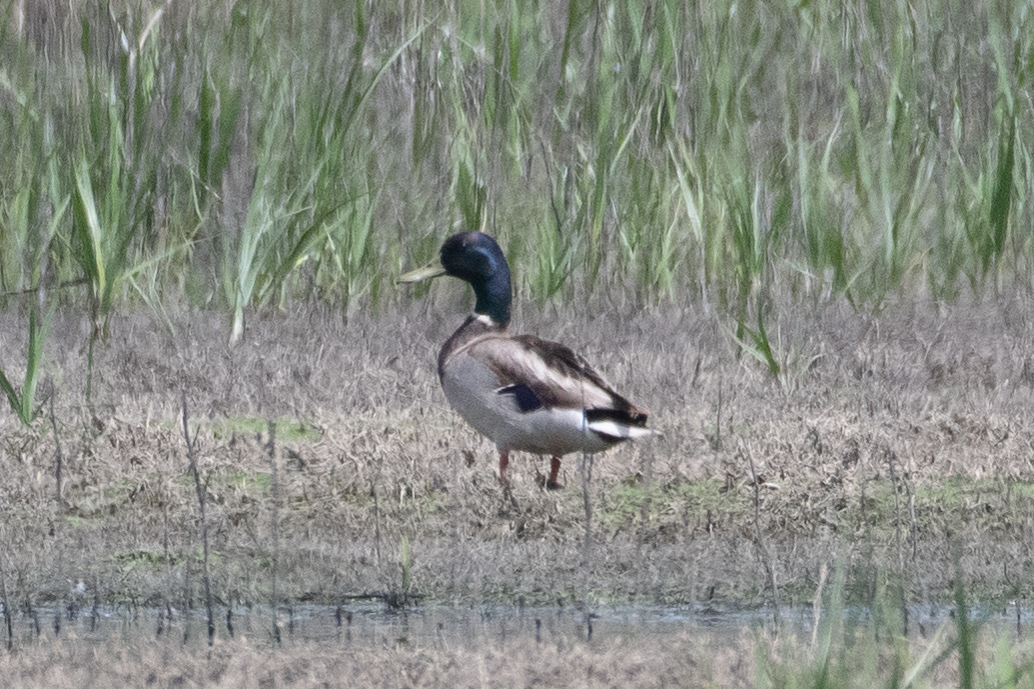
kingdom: Animalia
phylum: Chordata
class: Aves
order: Anseriformes
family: Anatidae
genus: Anas
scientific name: Anas platyrhynchos
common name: Mallard
